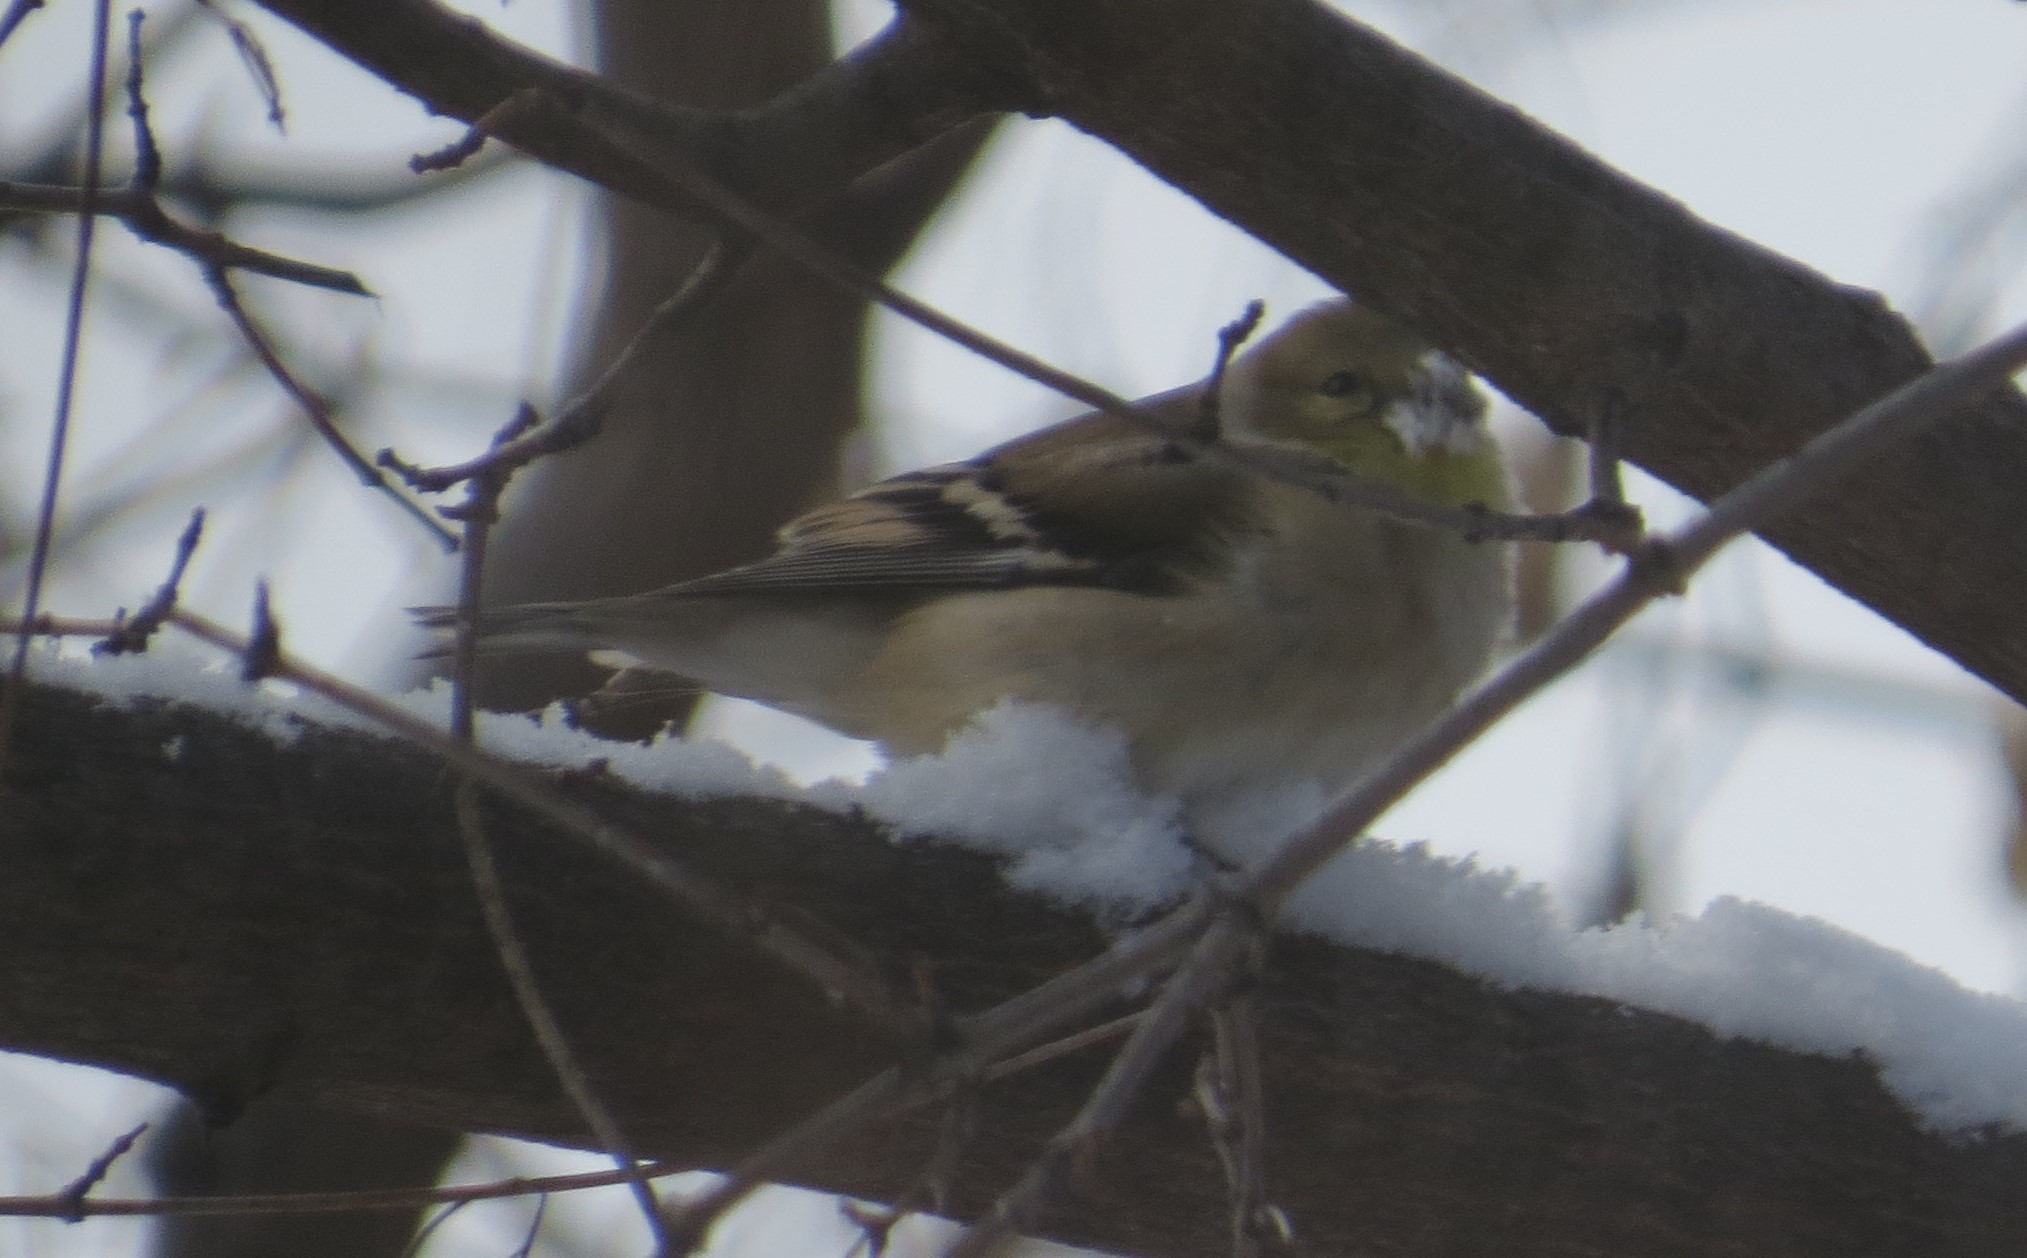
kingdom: Animalia
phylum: Chordata
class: Aves
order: Passeriformes
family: Fringillidae
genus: Spinus
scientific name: Spinus tristis
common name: American goldfinch
